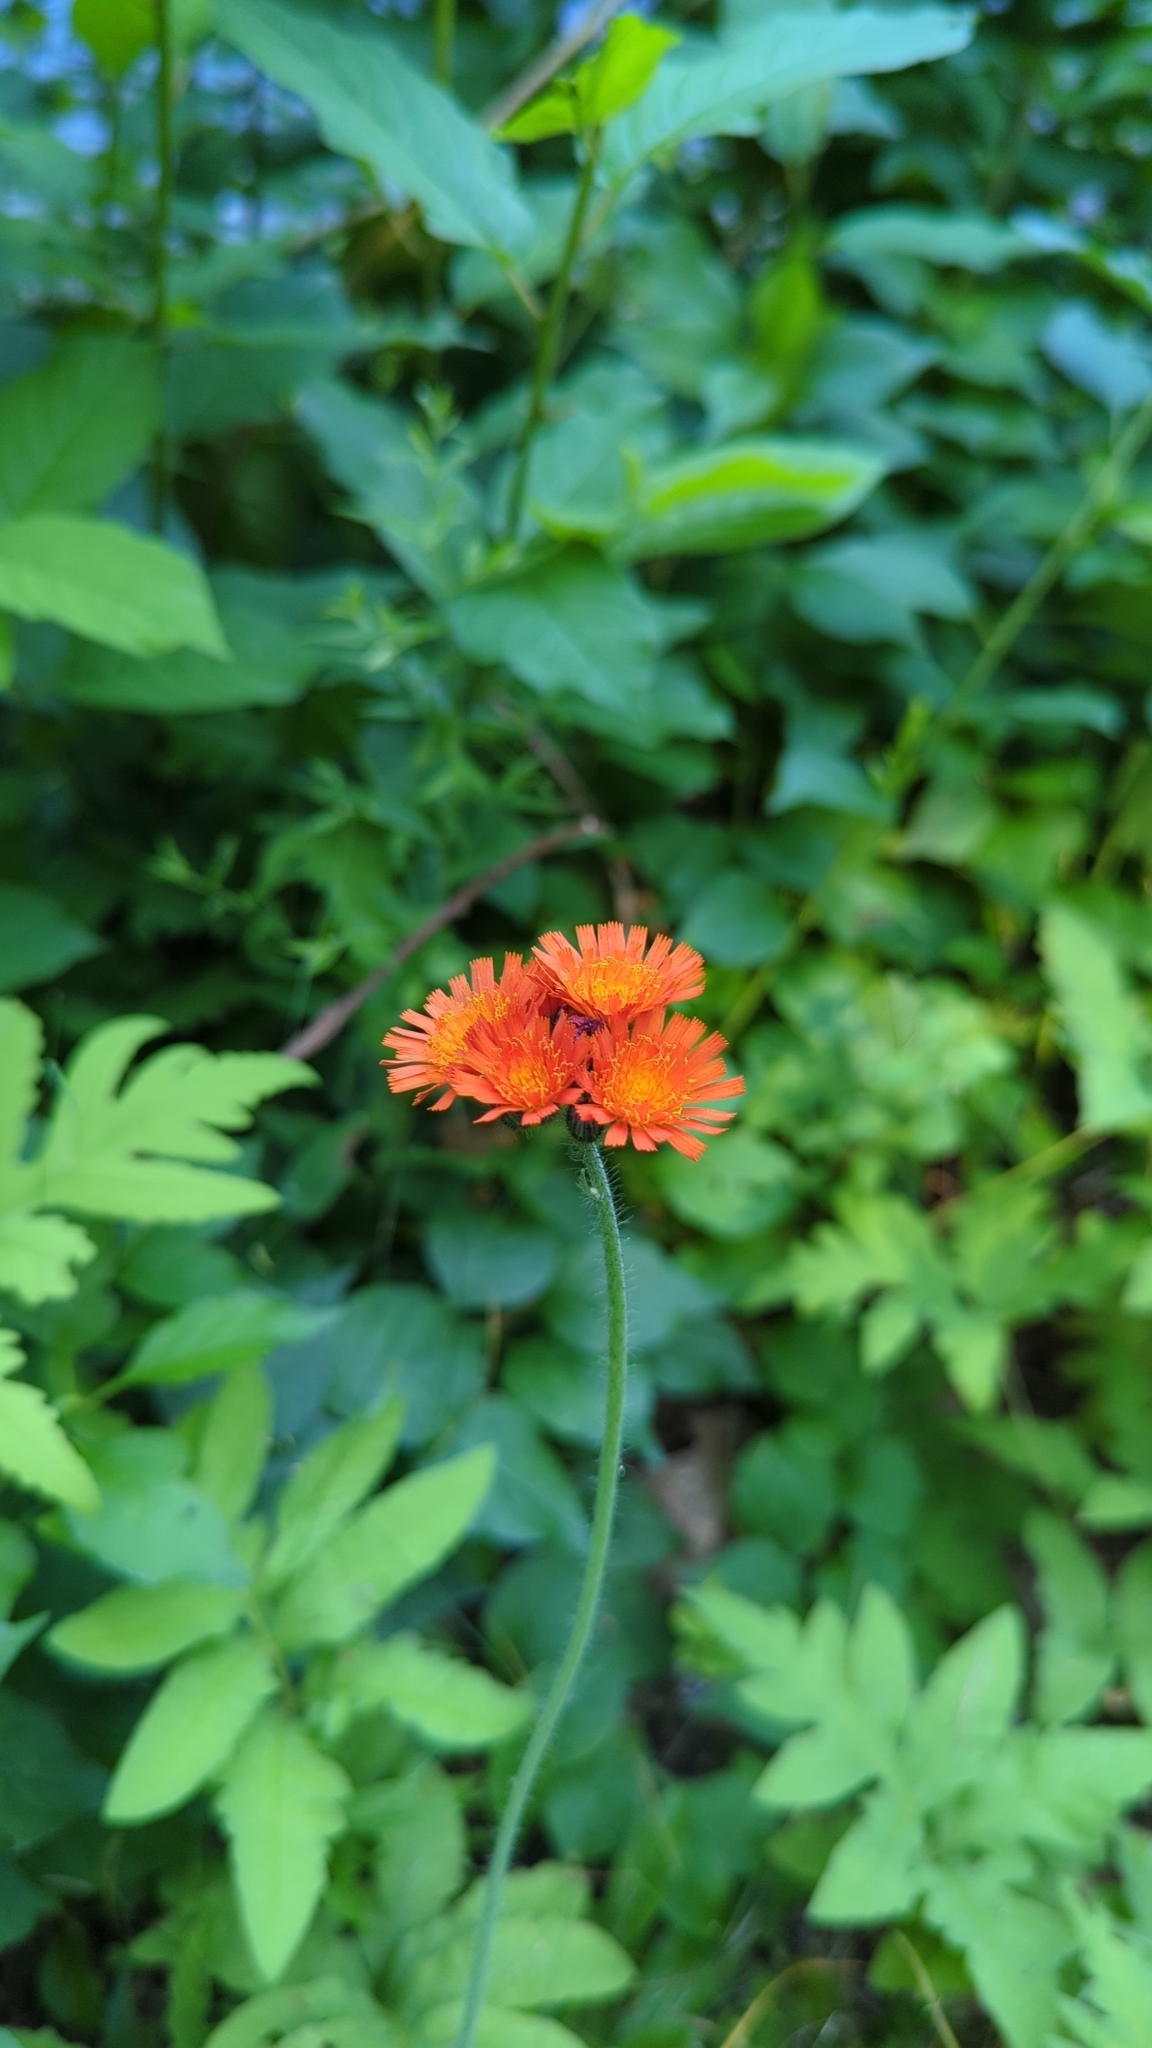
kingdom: Plantae
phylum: Tracheophyta
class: Magnoliopsida
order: Asterales
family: Asteraceae
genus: Pilosella
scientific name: Pilosella aurantiaca
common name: Fox-and-cubs
